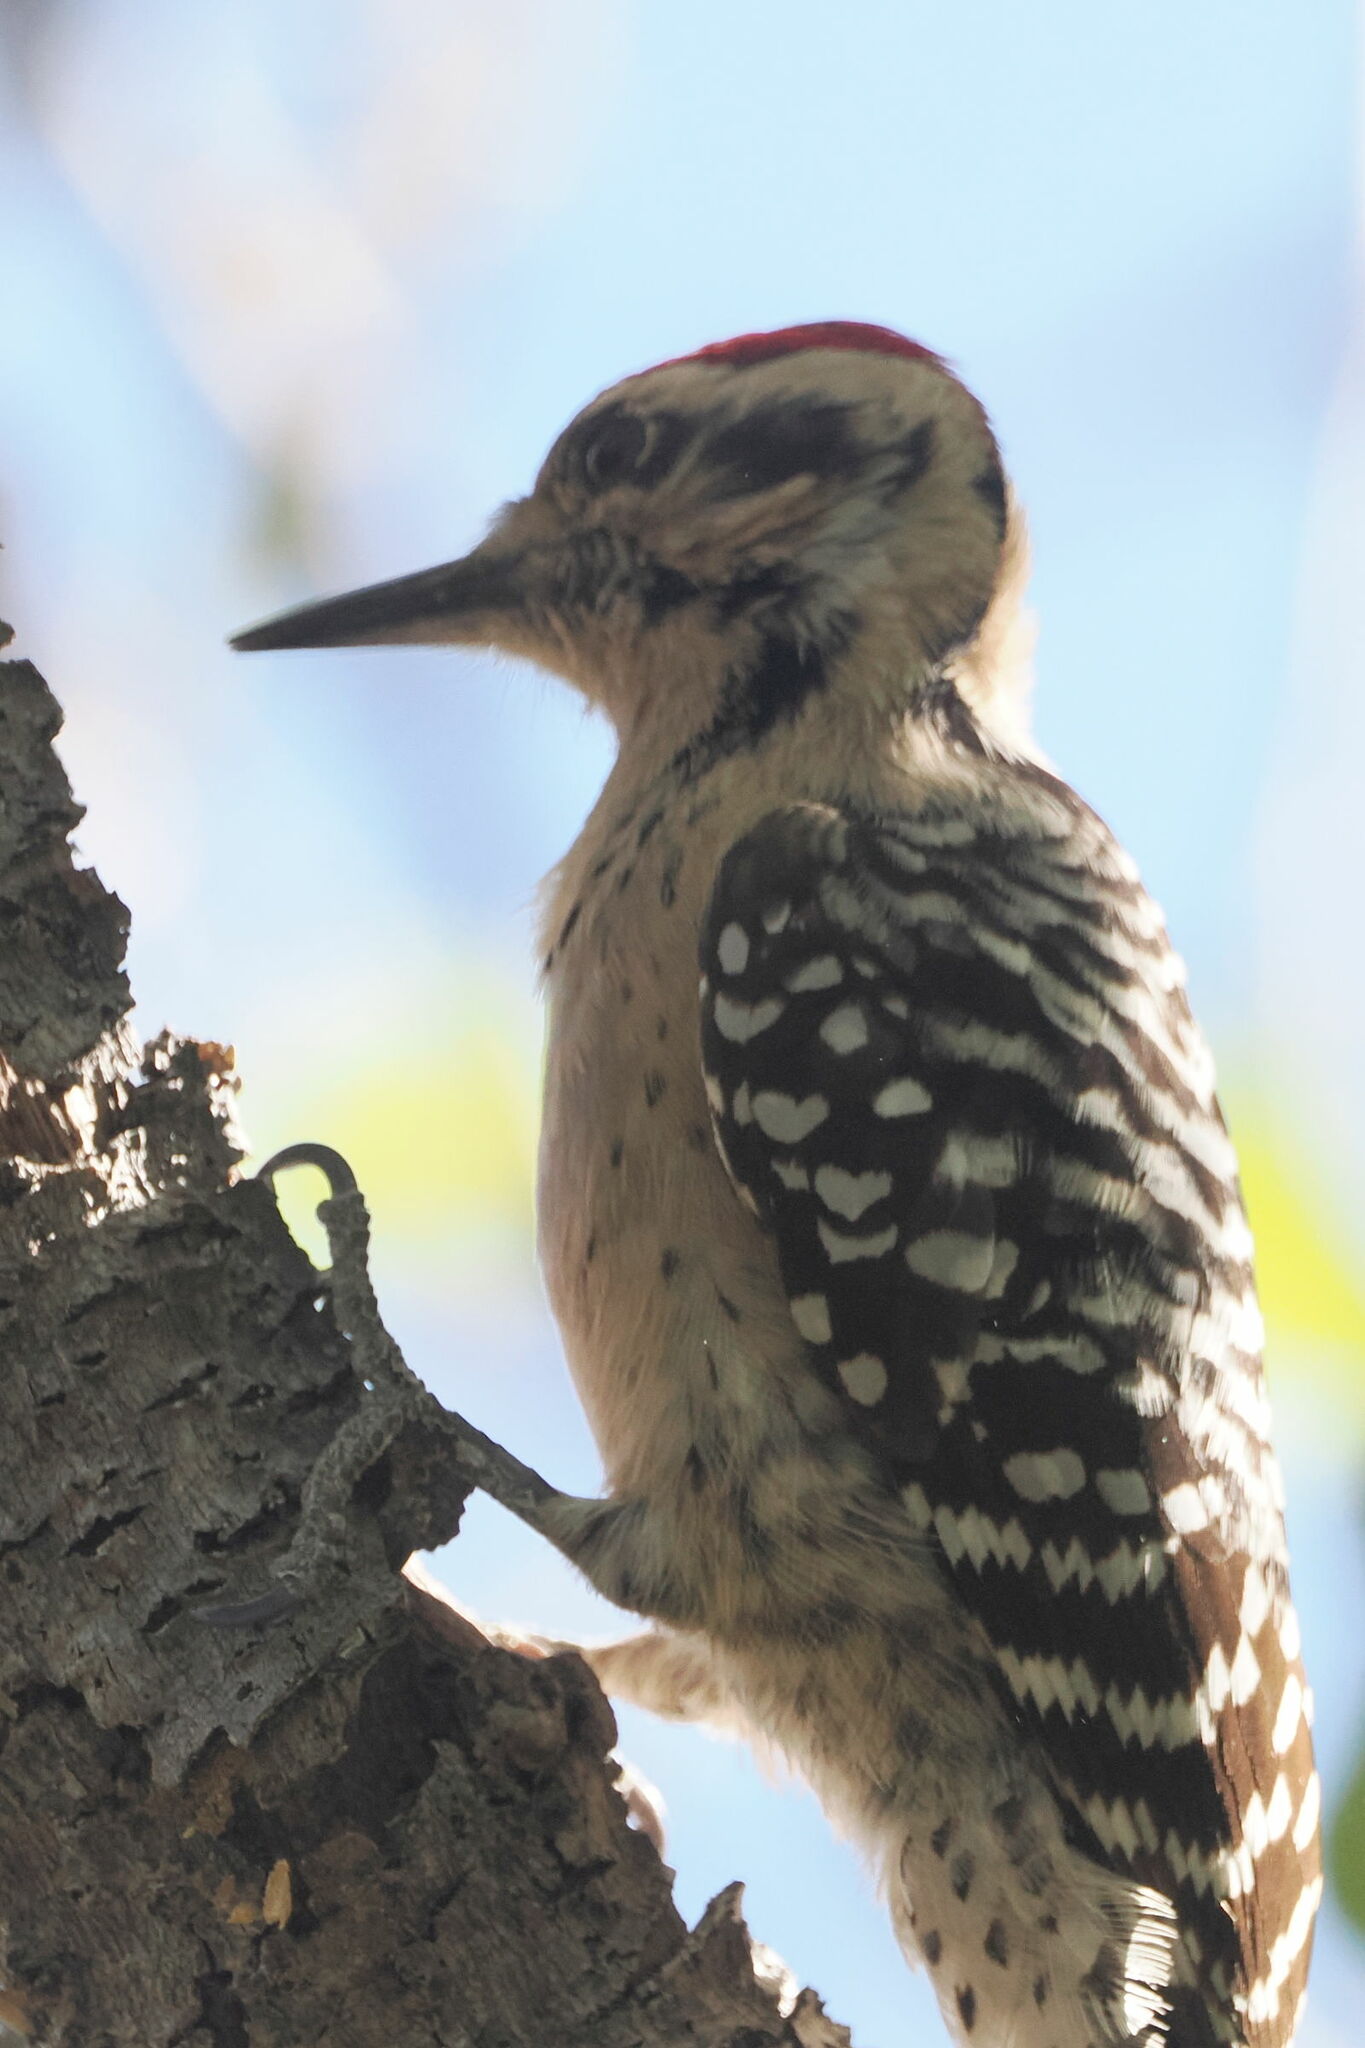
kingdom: Animalia
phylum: Chordata
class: Aves
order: Piciformes
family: Picidae
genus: Dryobates
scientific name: Dryobates scalaris
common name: Ladder-backed woodpecker
